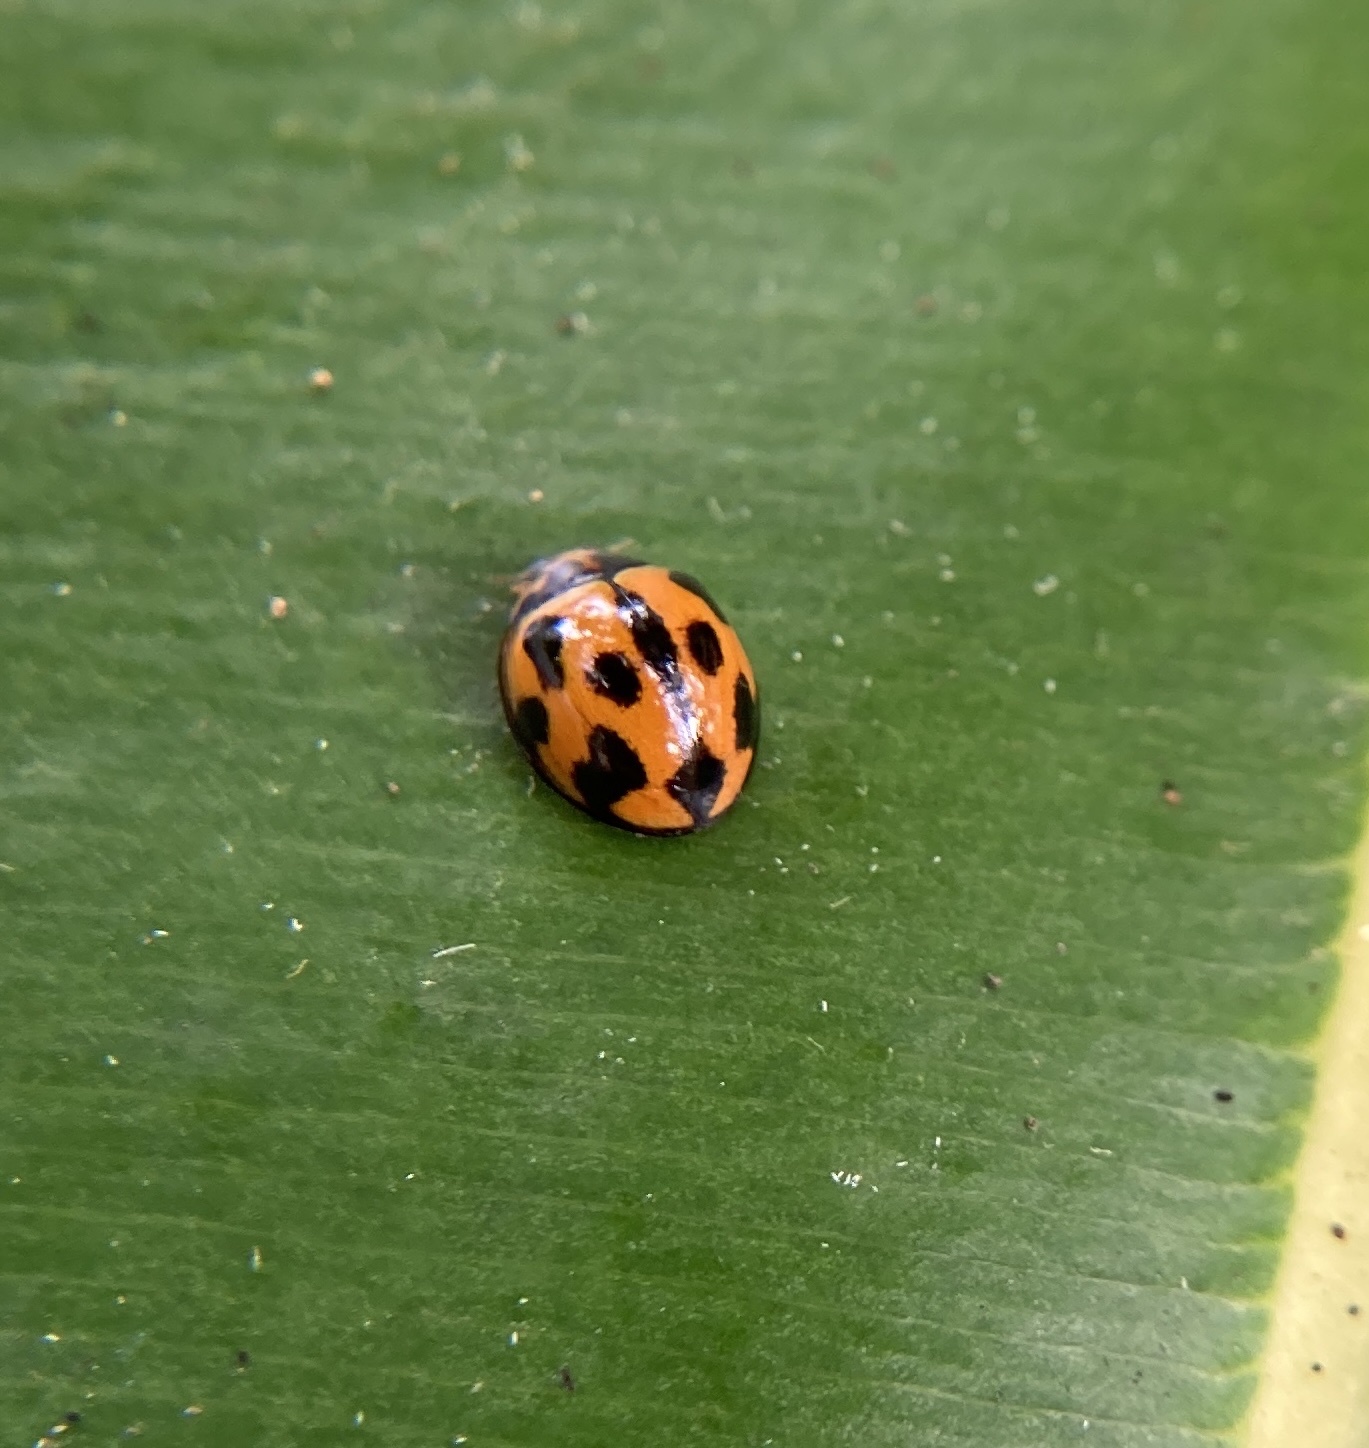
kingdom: Animalia
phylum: Arthropoda
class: Insecta
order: Coleoptera
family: Coccinellidae
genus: Coelophora
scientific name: Coelophora inaequalis
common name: Common australian lady beetle
